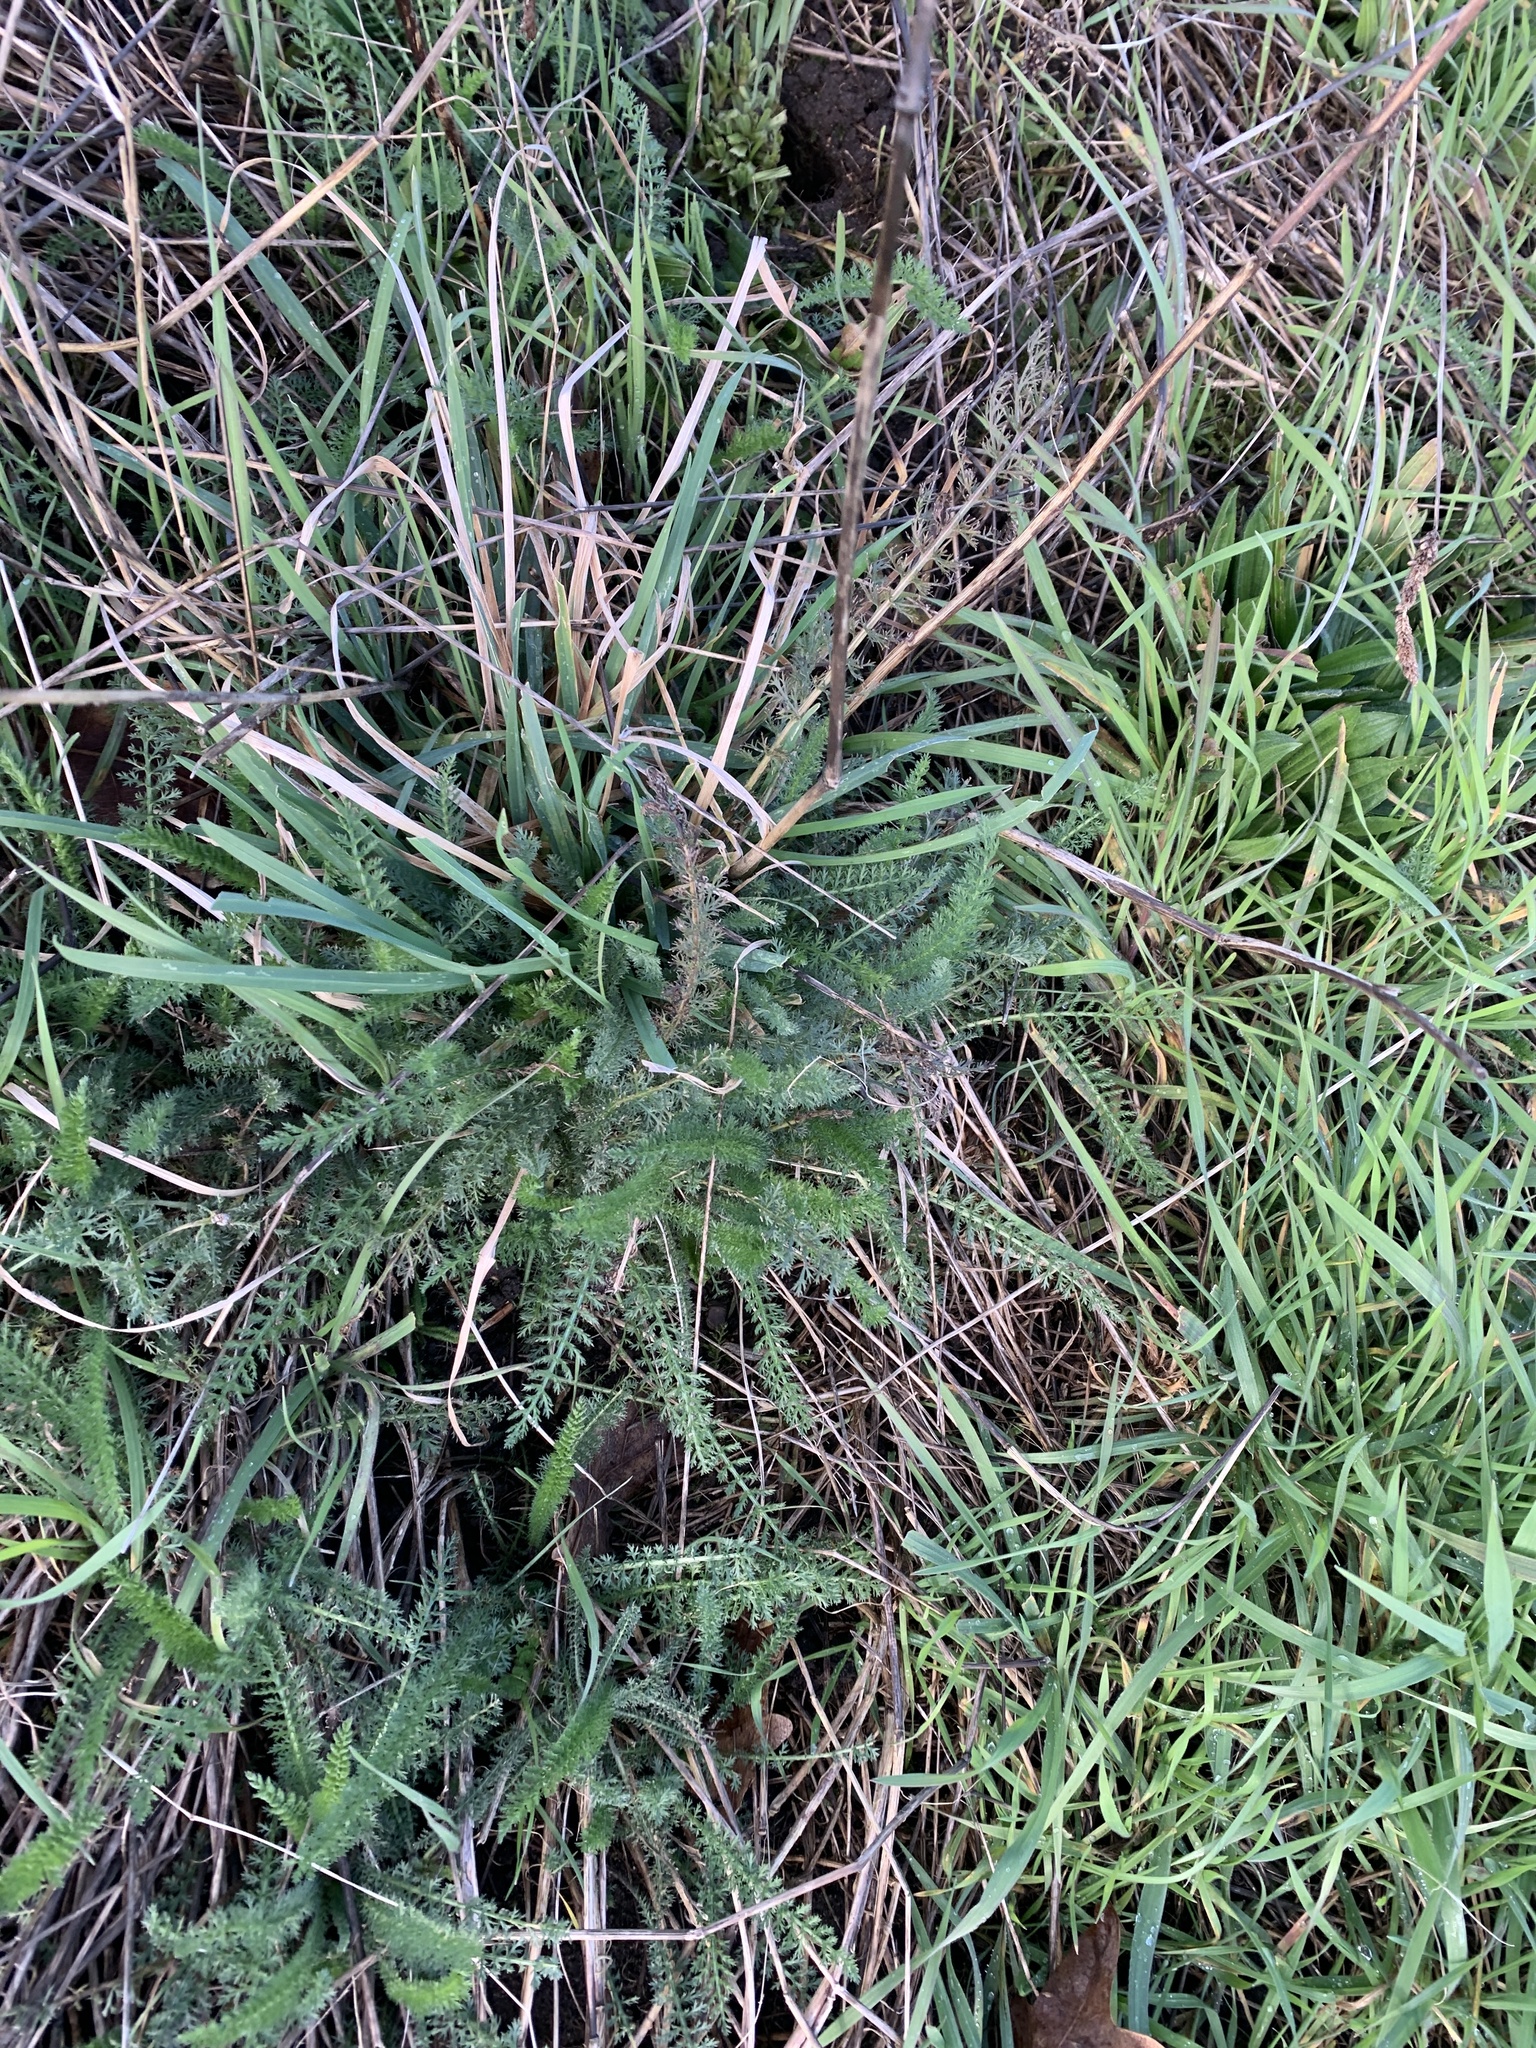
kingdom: Plantae
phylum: Tracheophyta
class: Magnoliopsida
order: Asterales
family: Asteraceae
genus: Achillea
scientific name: Achillea millefolium
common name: Yarrow
